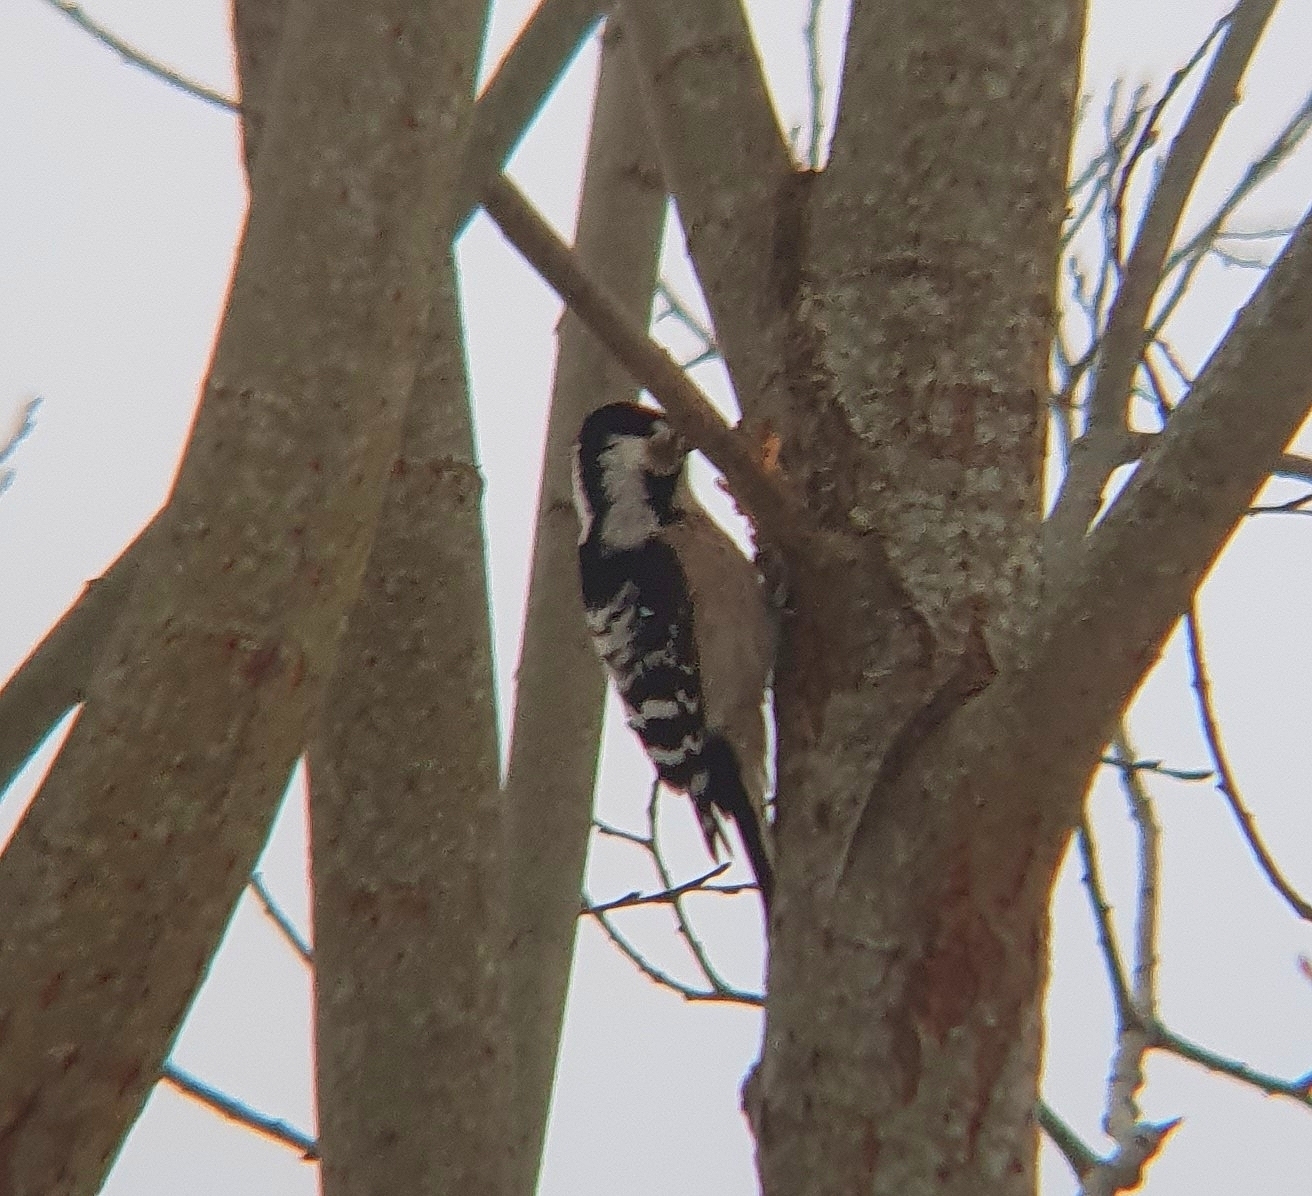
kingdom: Animalia
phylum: Chordata
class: Aves
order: Piciformes
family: Picidae
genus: Dryobates
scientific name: Dryobates minor
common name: Lesser spotted woodpecker
